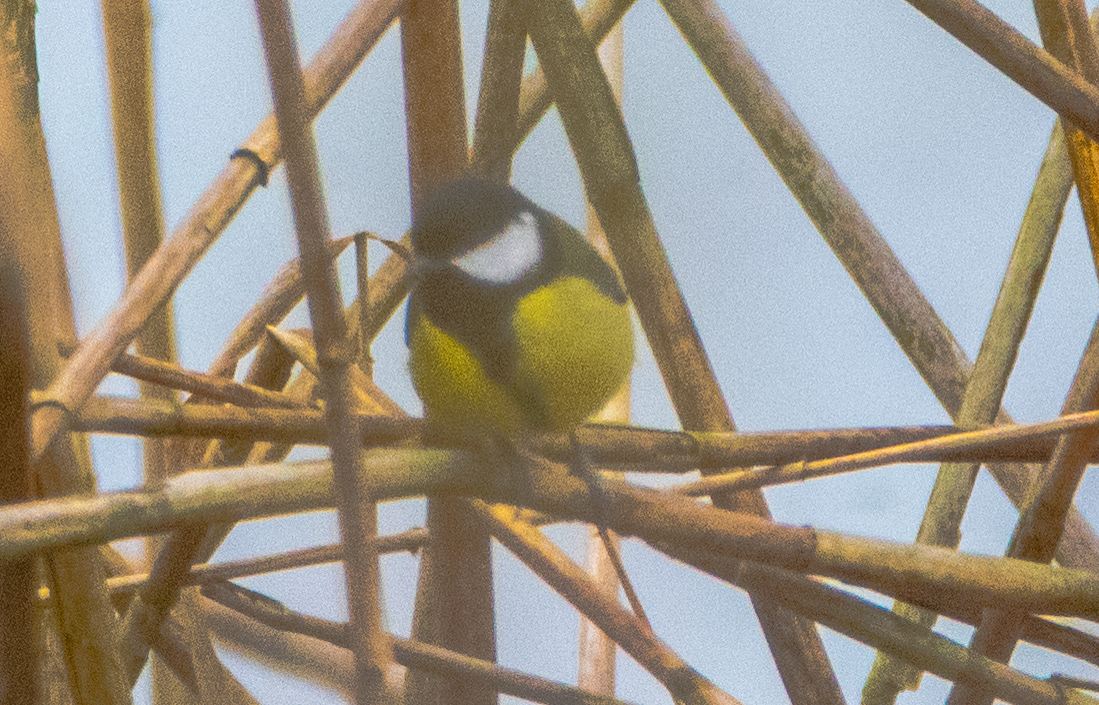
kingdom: Animalia
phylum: Chordata
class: Aves
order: Passeriformes
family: Paridae
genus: Parus
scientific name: Parus major
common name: Great tit
